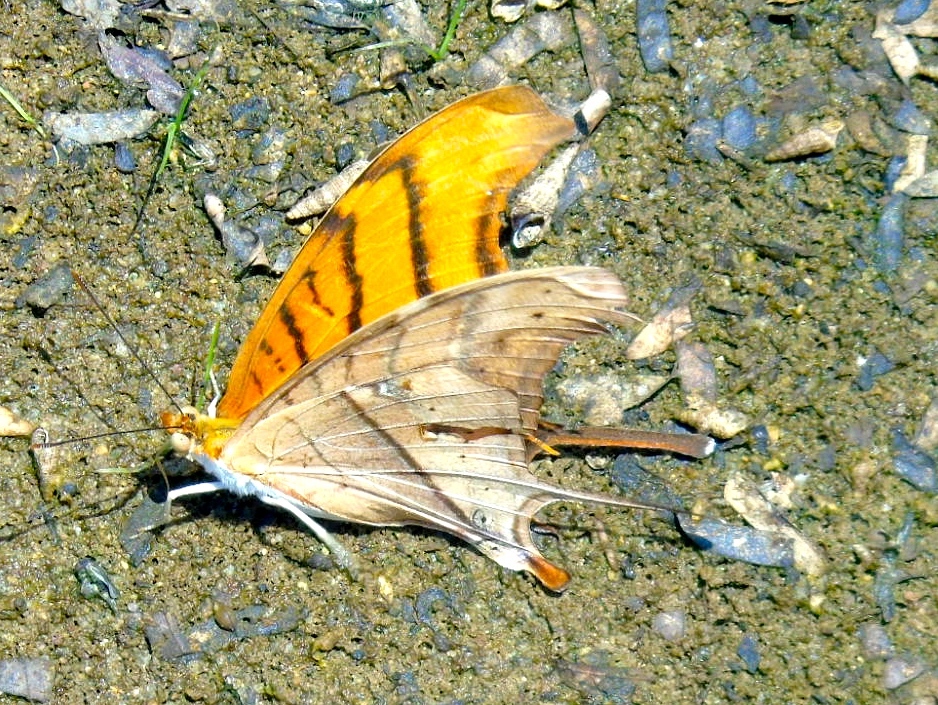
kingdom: Animalia
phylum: Arthropoda
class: Insecta
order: Lepidoptera
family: Nymphalidae
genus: Marpesia
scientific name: Marpesia petreus
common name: Red dagger wing
